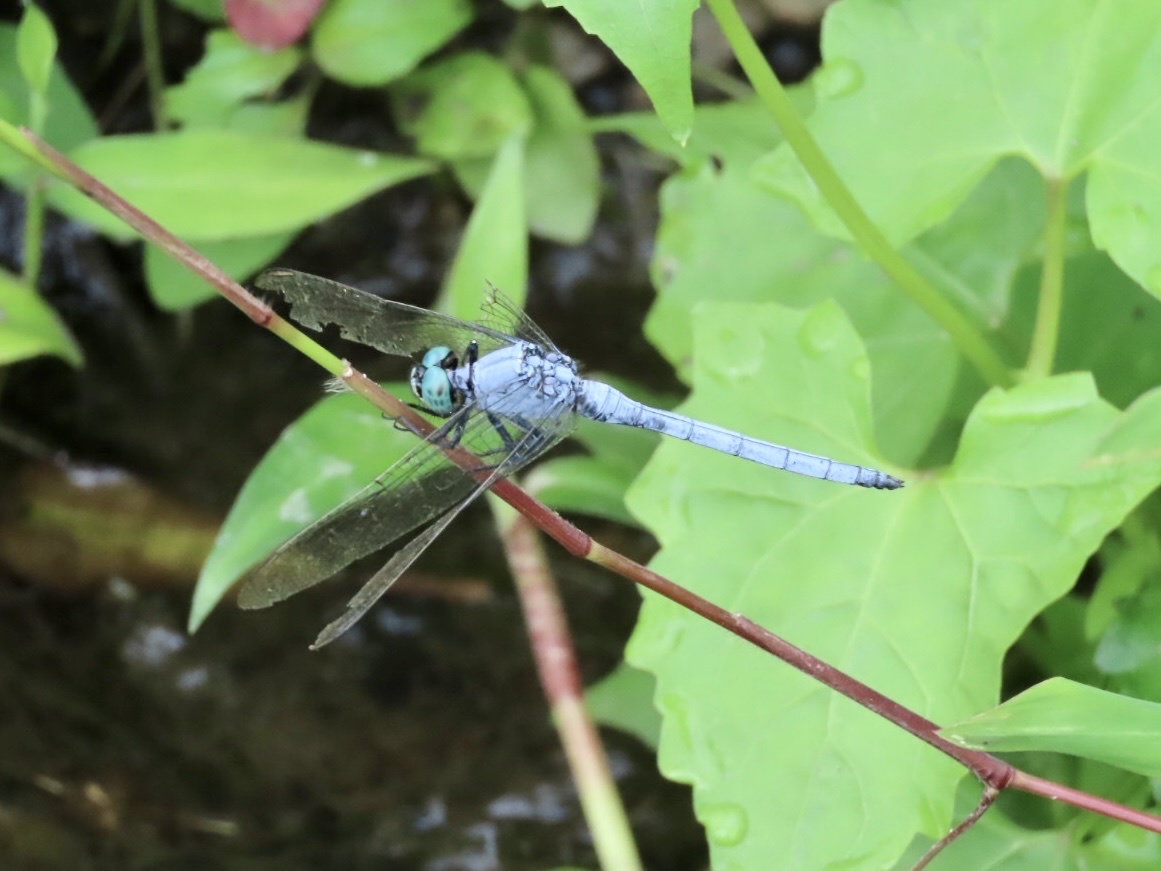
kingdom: Animalia
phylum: Arthropoda
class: Insecta
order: Odonata
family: Libellulidae
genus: Orthetrum
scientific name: Orthetrum luzonicum
